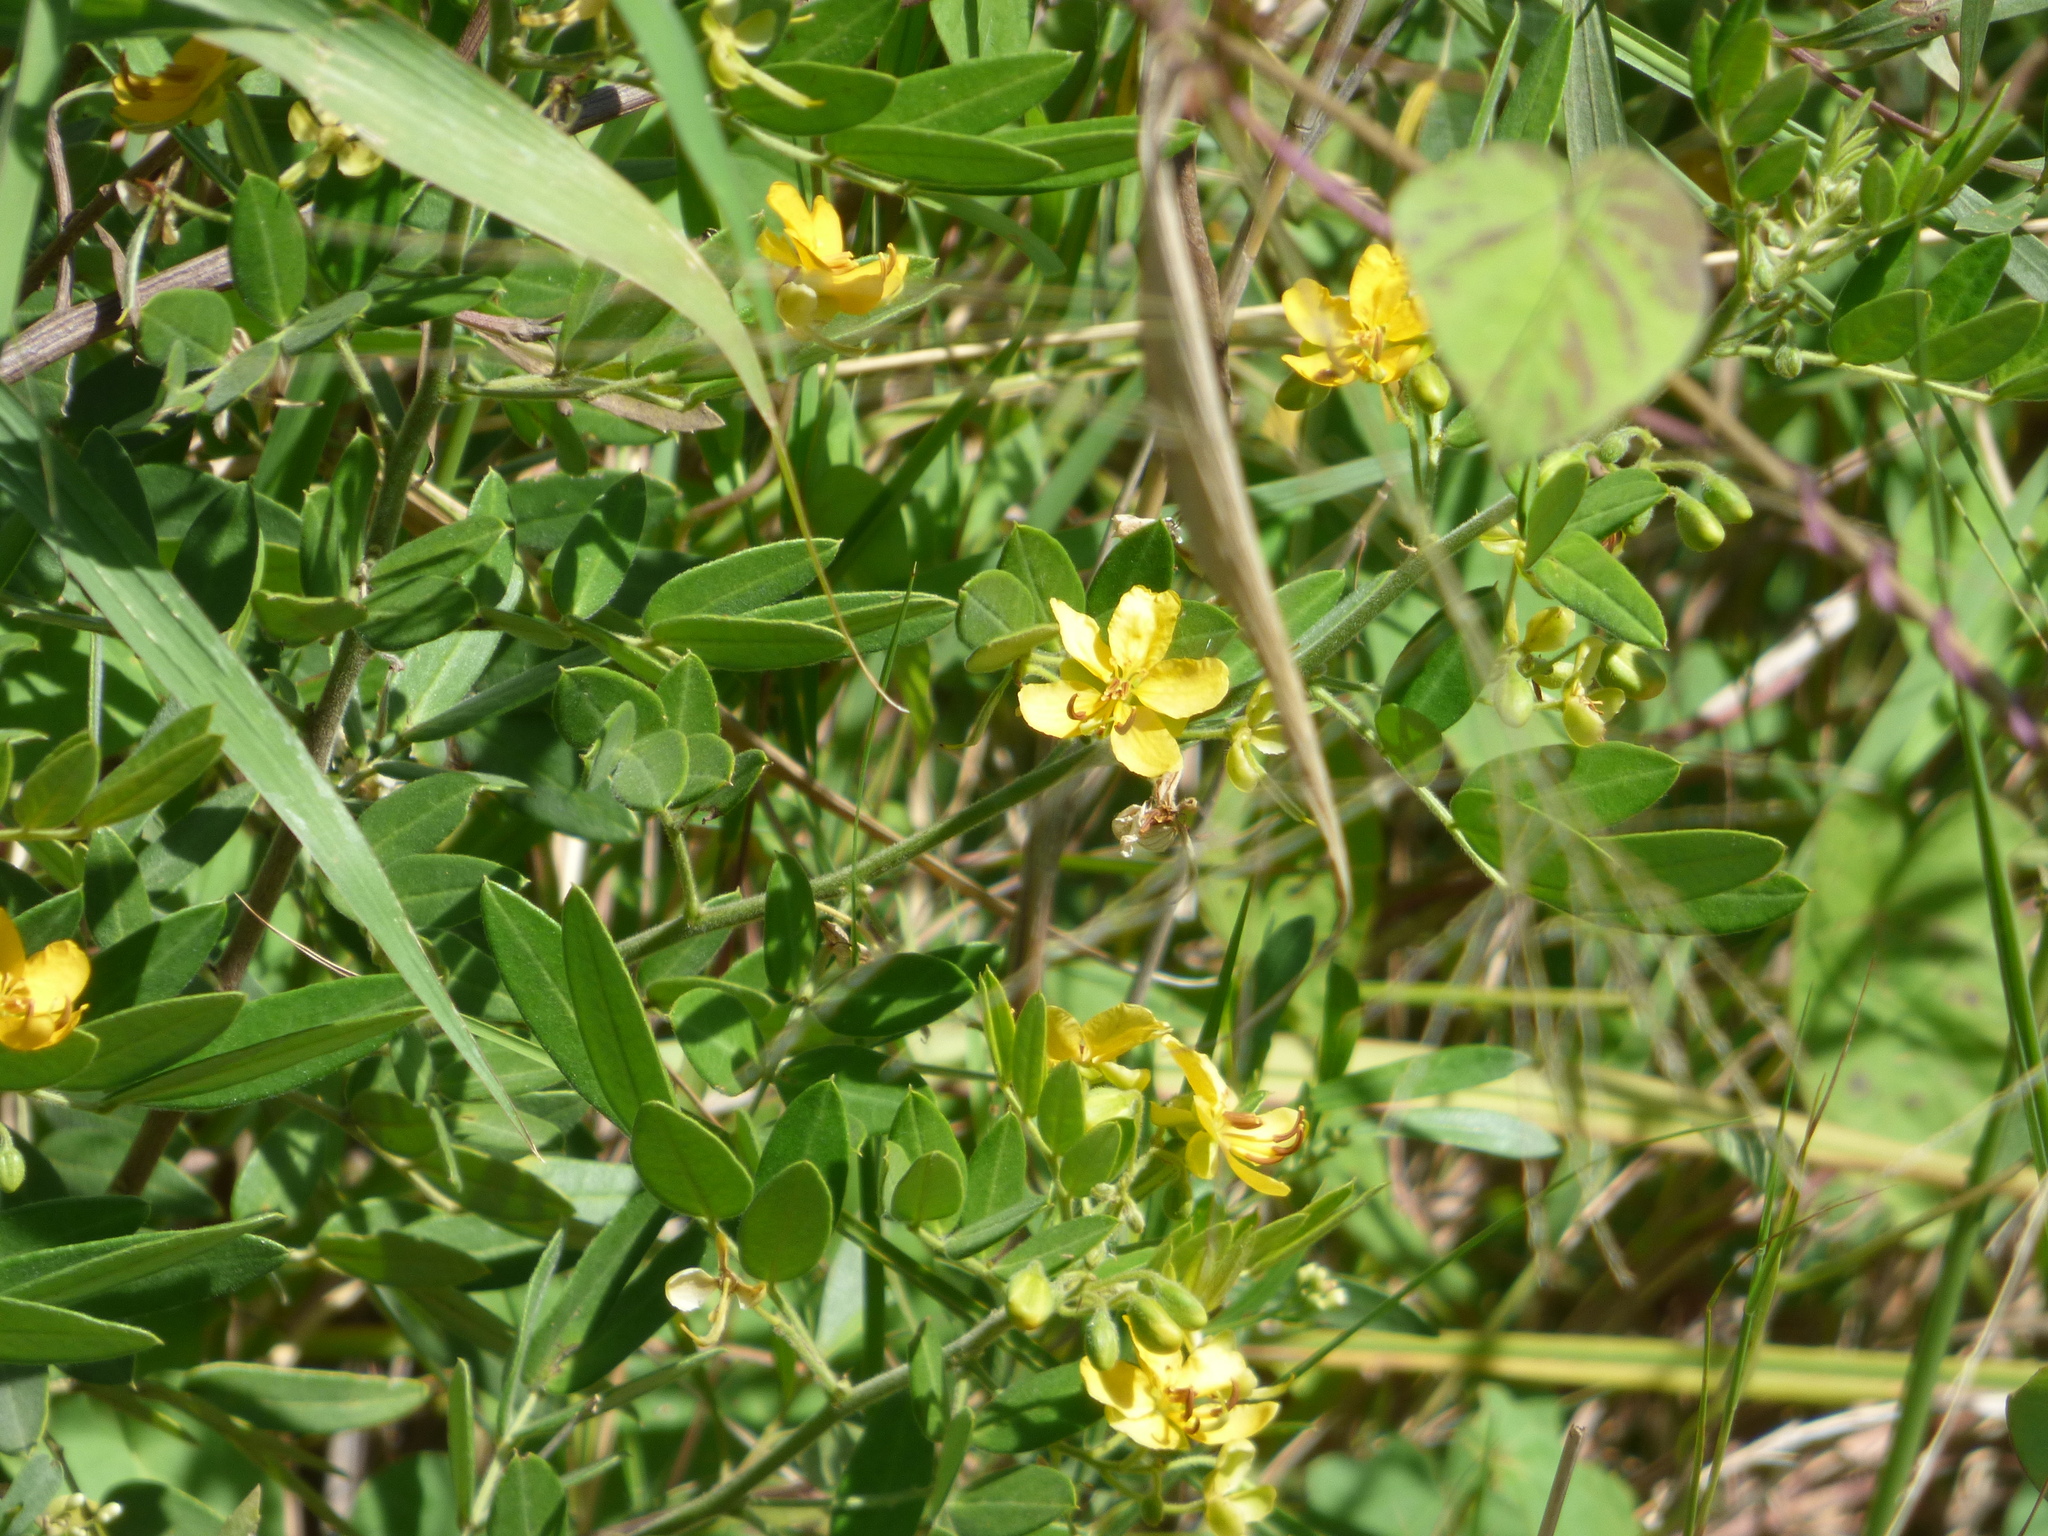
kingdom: Plantae
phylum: Tracheophyta
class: Magnoliopsida
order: Fabales
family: Fabaceae
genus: Senna
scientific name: Senna morongii
